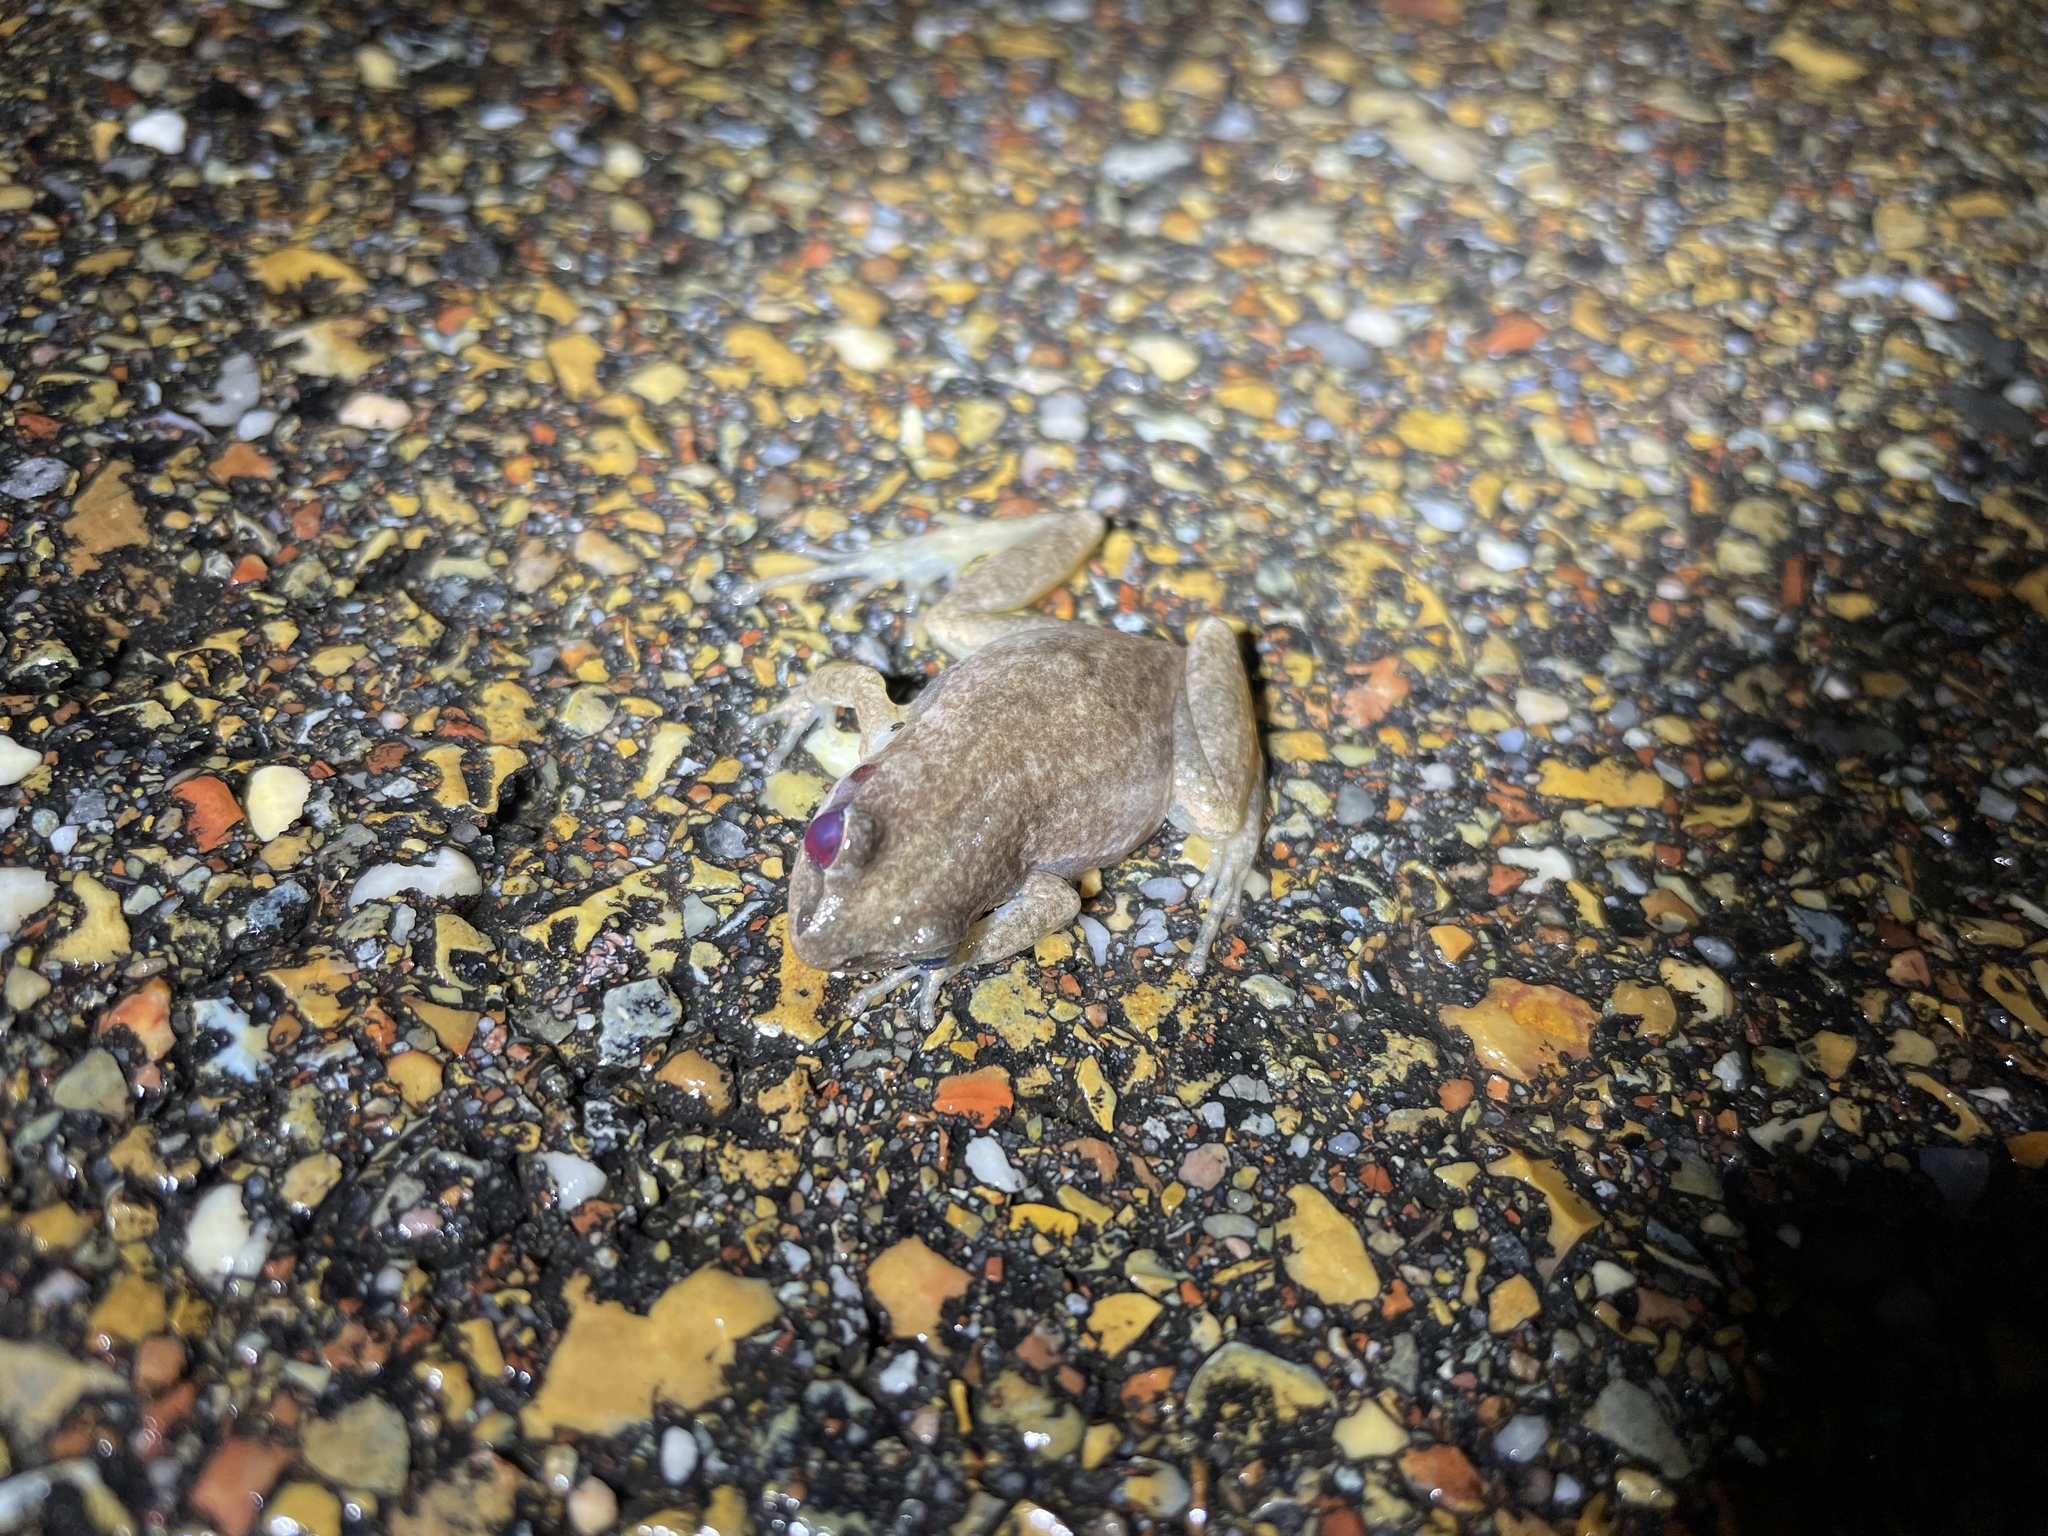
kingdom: Animalia
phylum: Chordata
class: Amphibia
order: Anura
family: Hylidae
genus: Pseudacris
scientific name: Pseudacris fouquettei
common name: Cajun chorus frog
